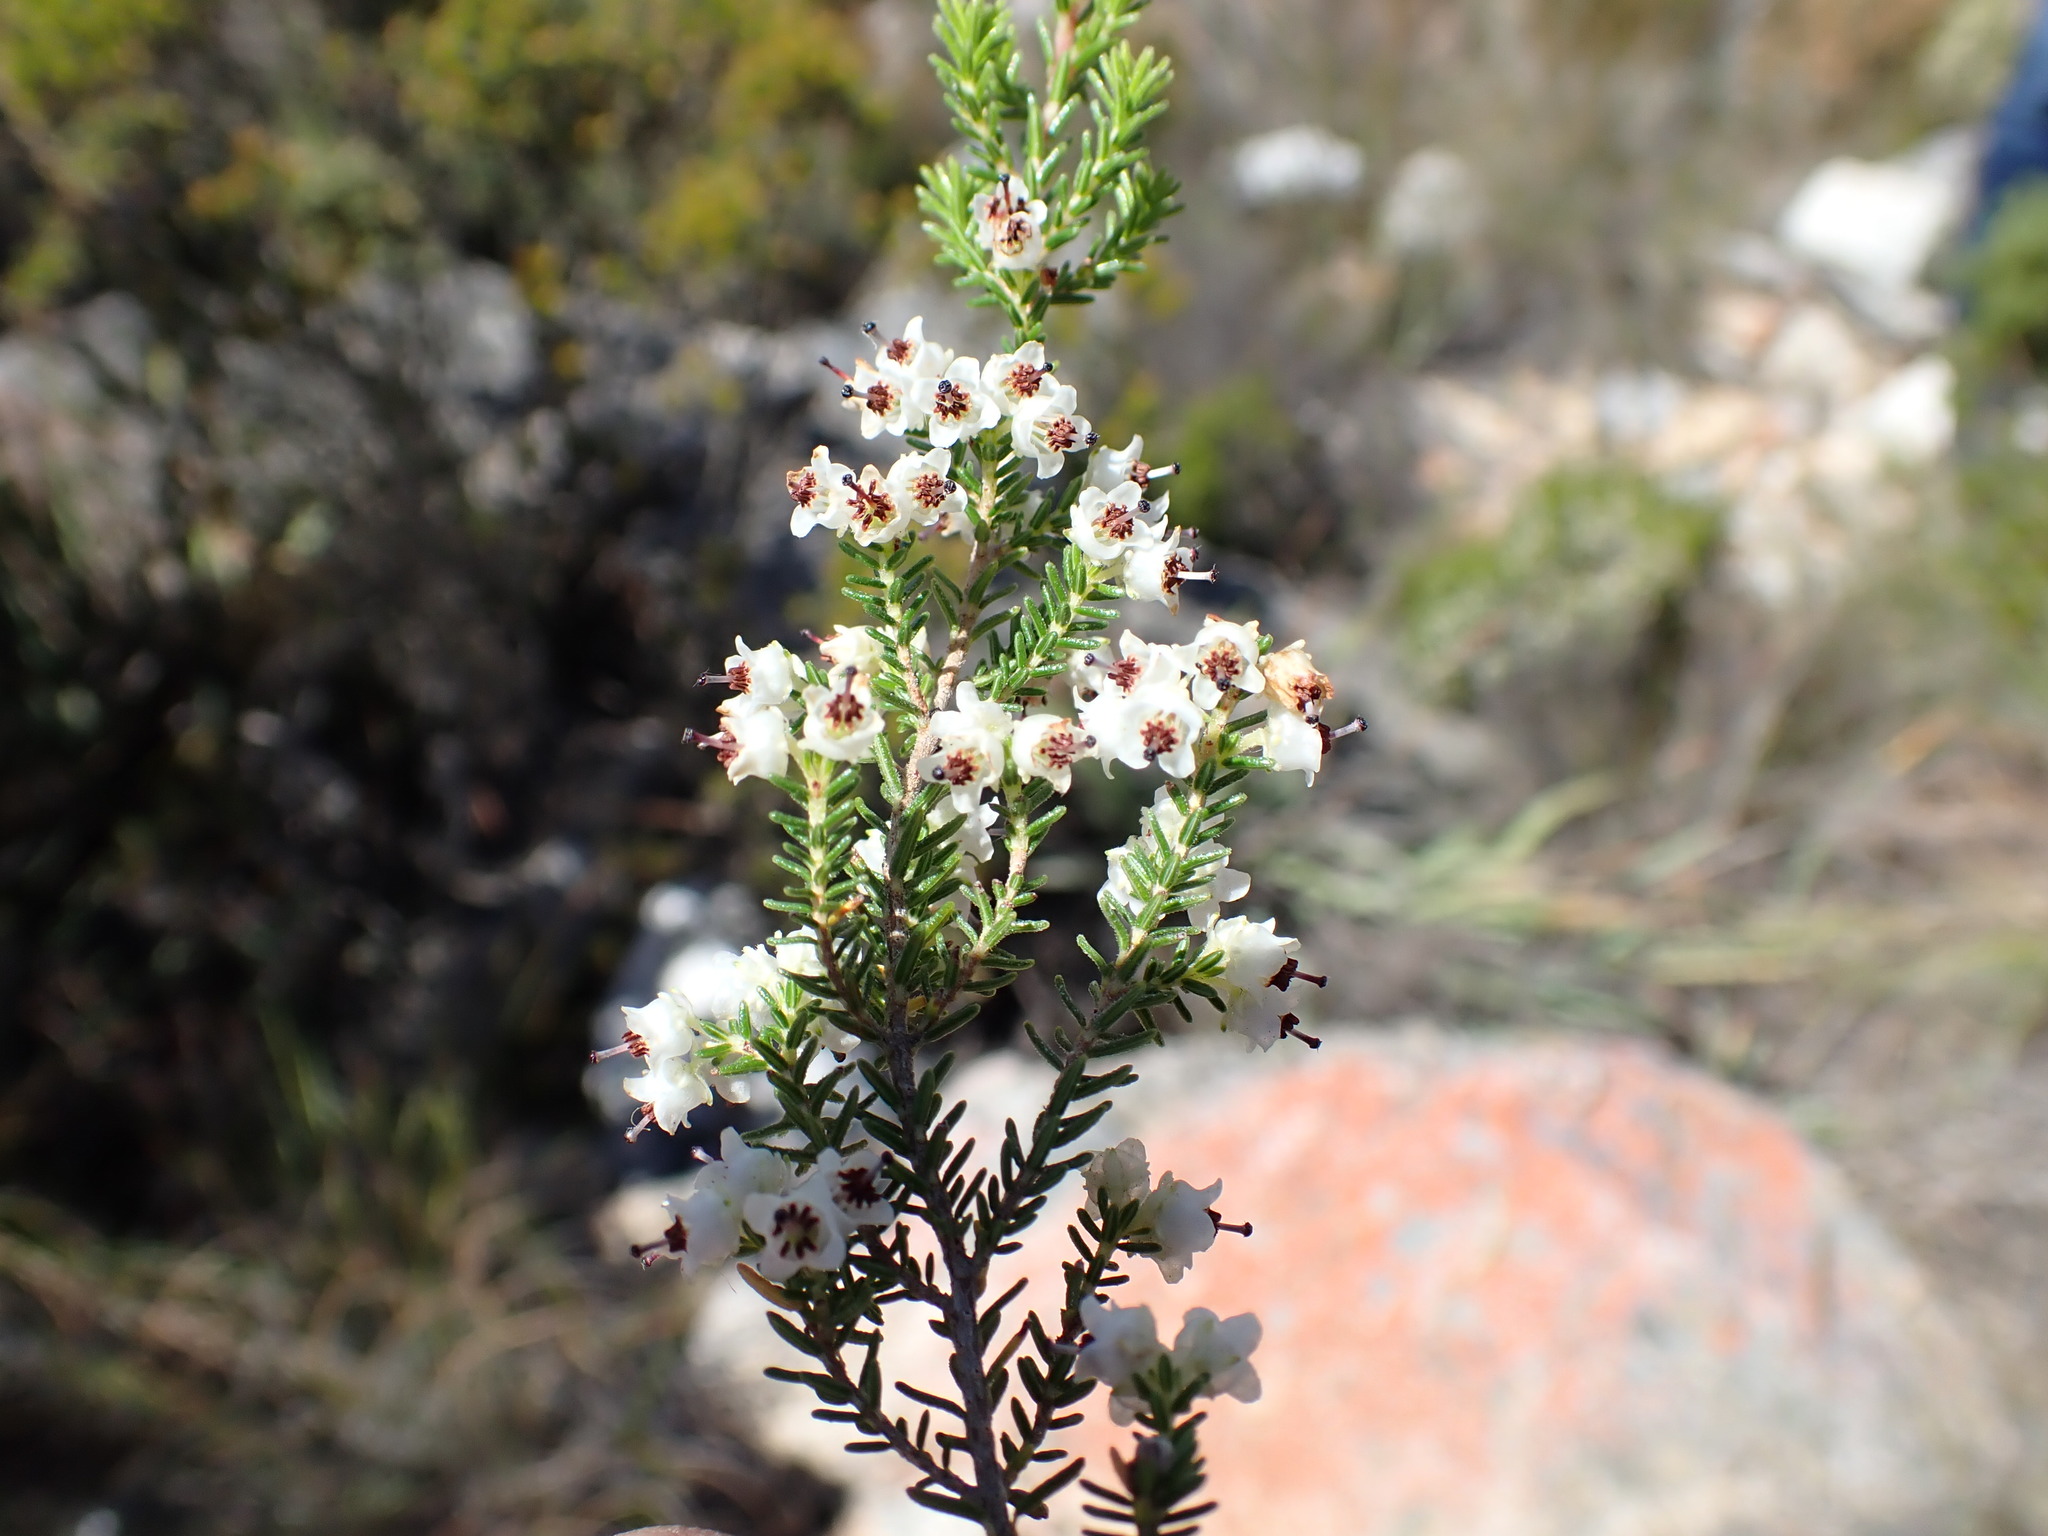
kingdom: Plantae
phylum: Tracheophyta
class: Magnoliopsida
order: Ericales
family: Ericaceae
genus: Erica
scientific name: Erica andreaei
